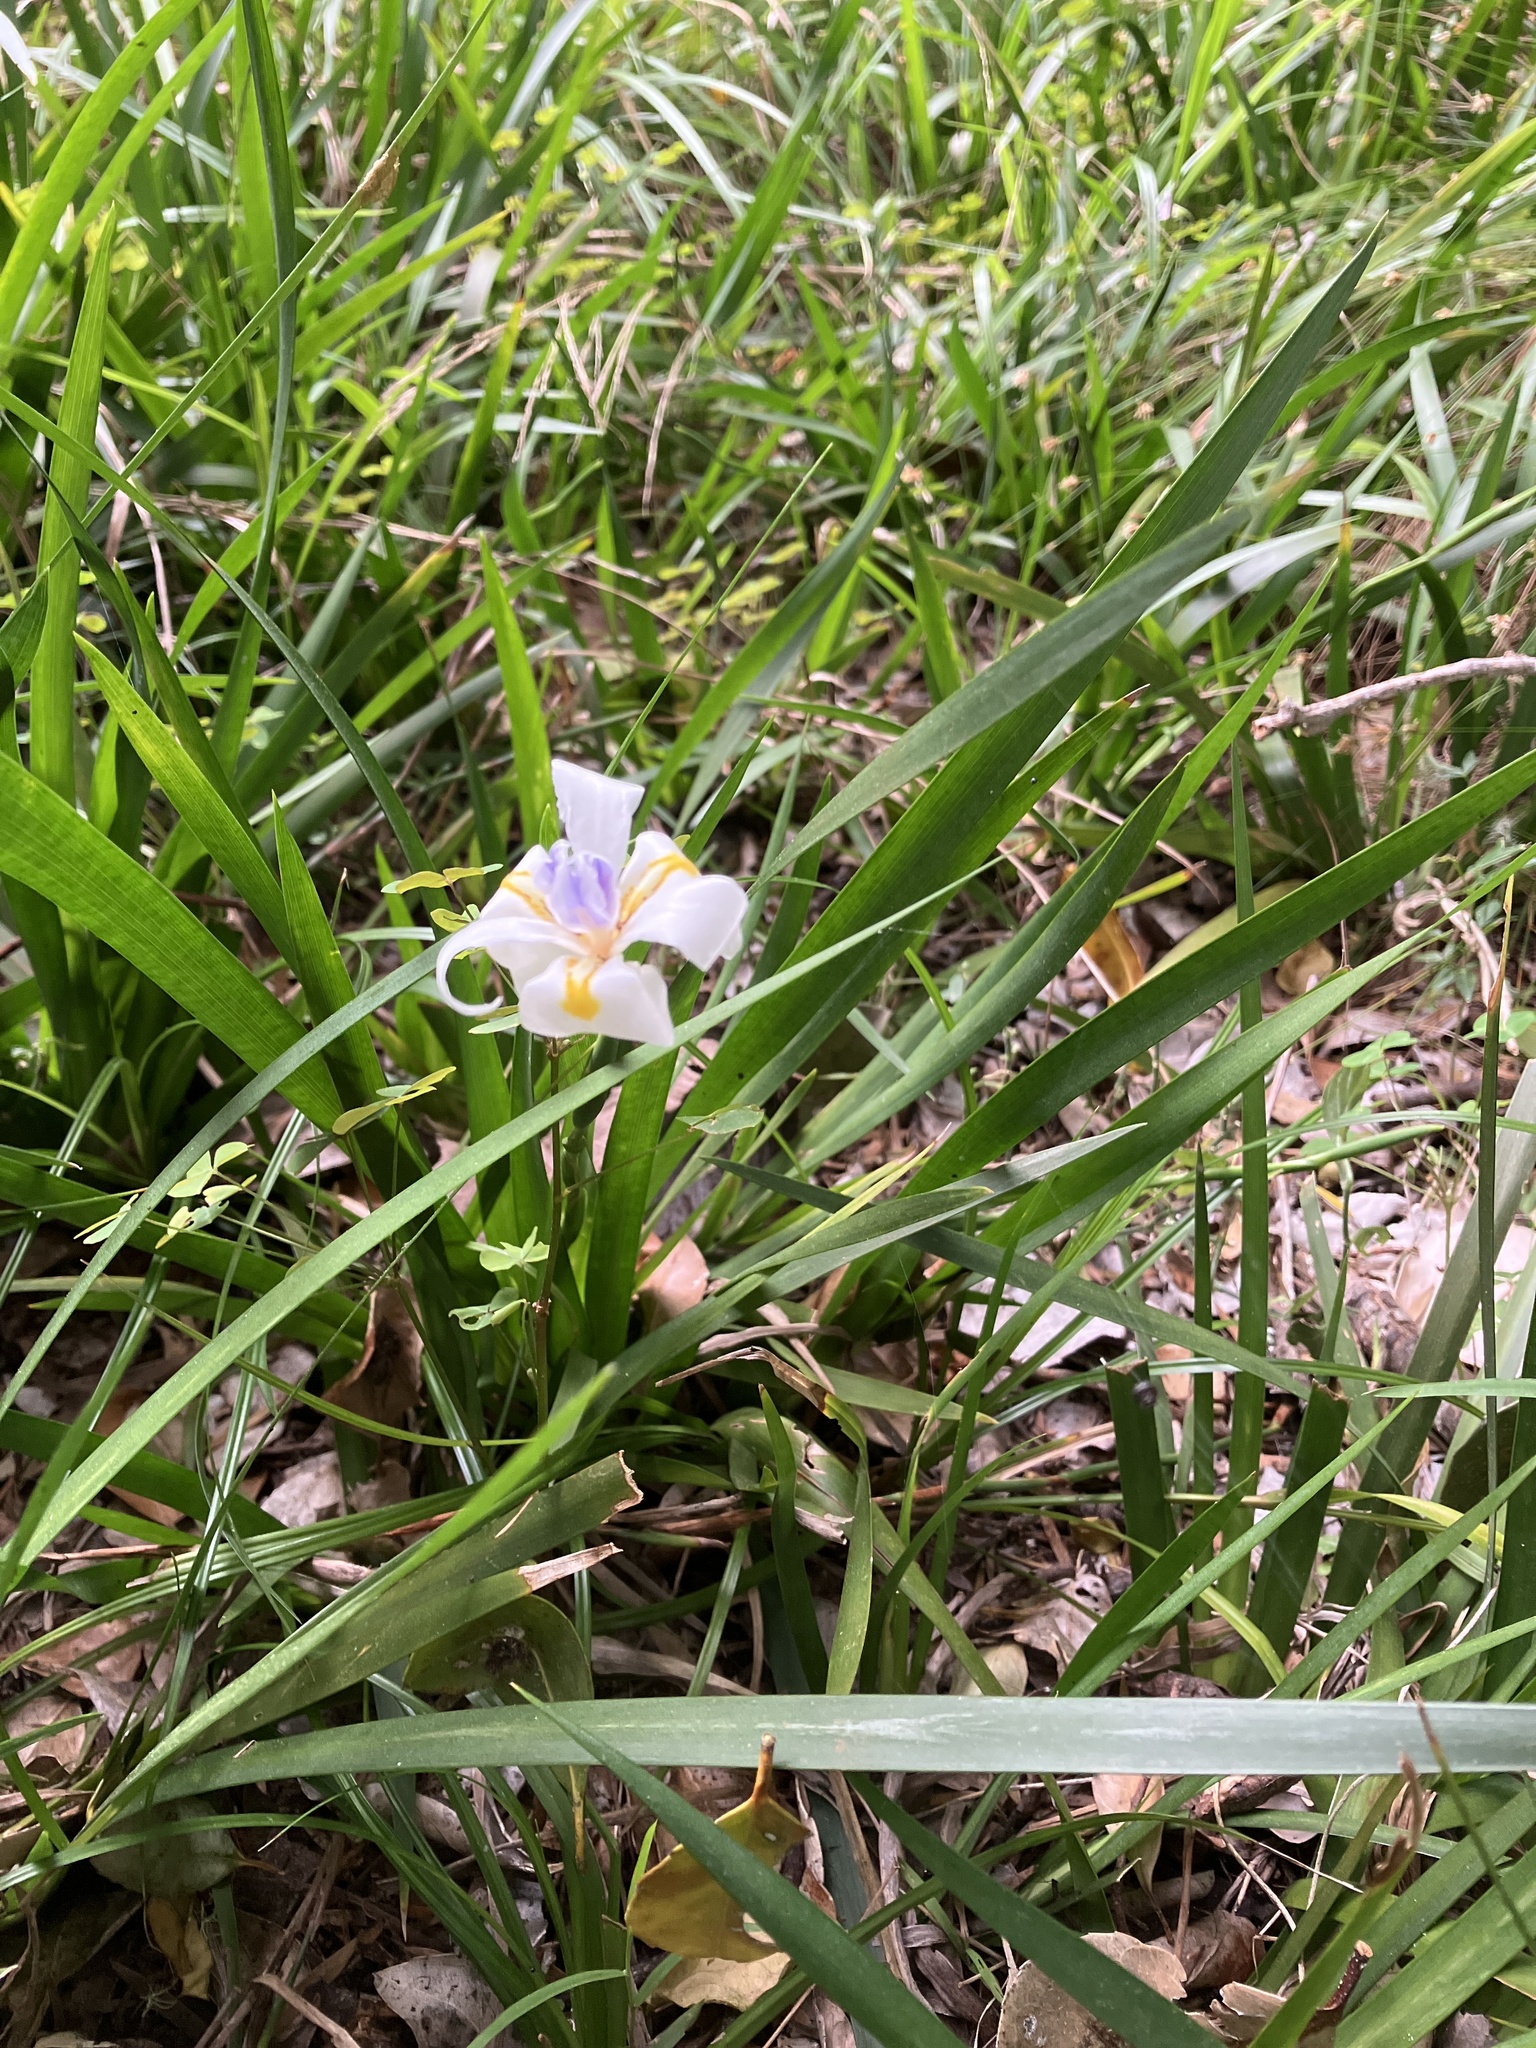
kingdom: Plantae
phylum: Tracheophyta
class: Liliopsida
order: Asparagales
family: Iridaceae
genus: Dietes
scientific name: Dietes iridioides
